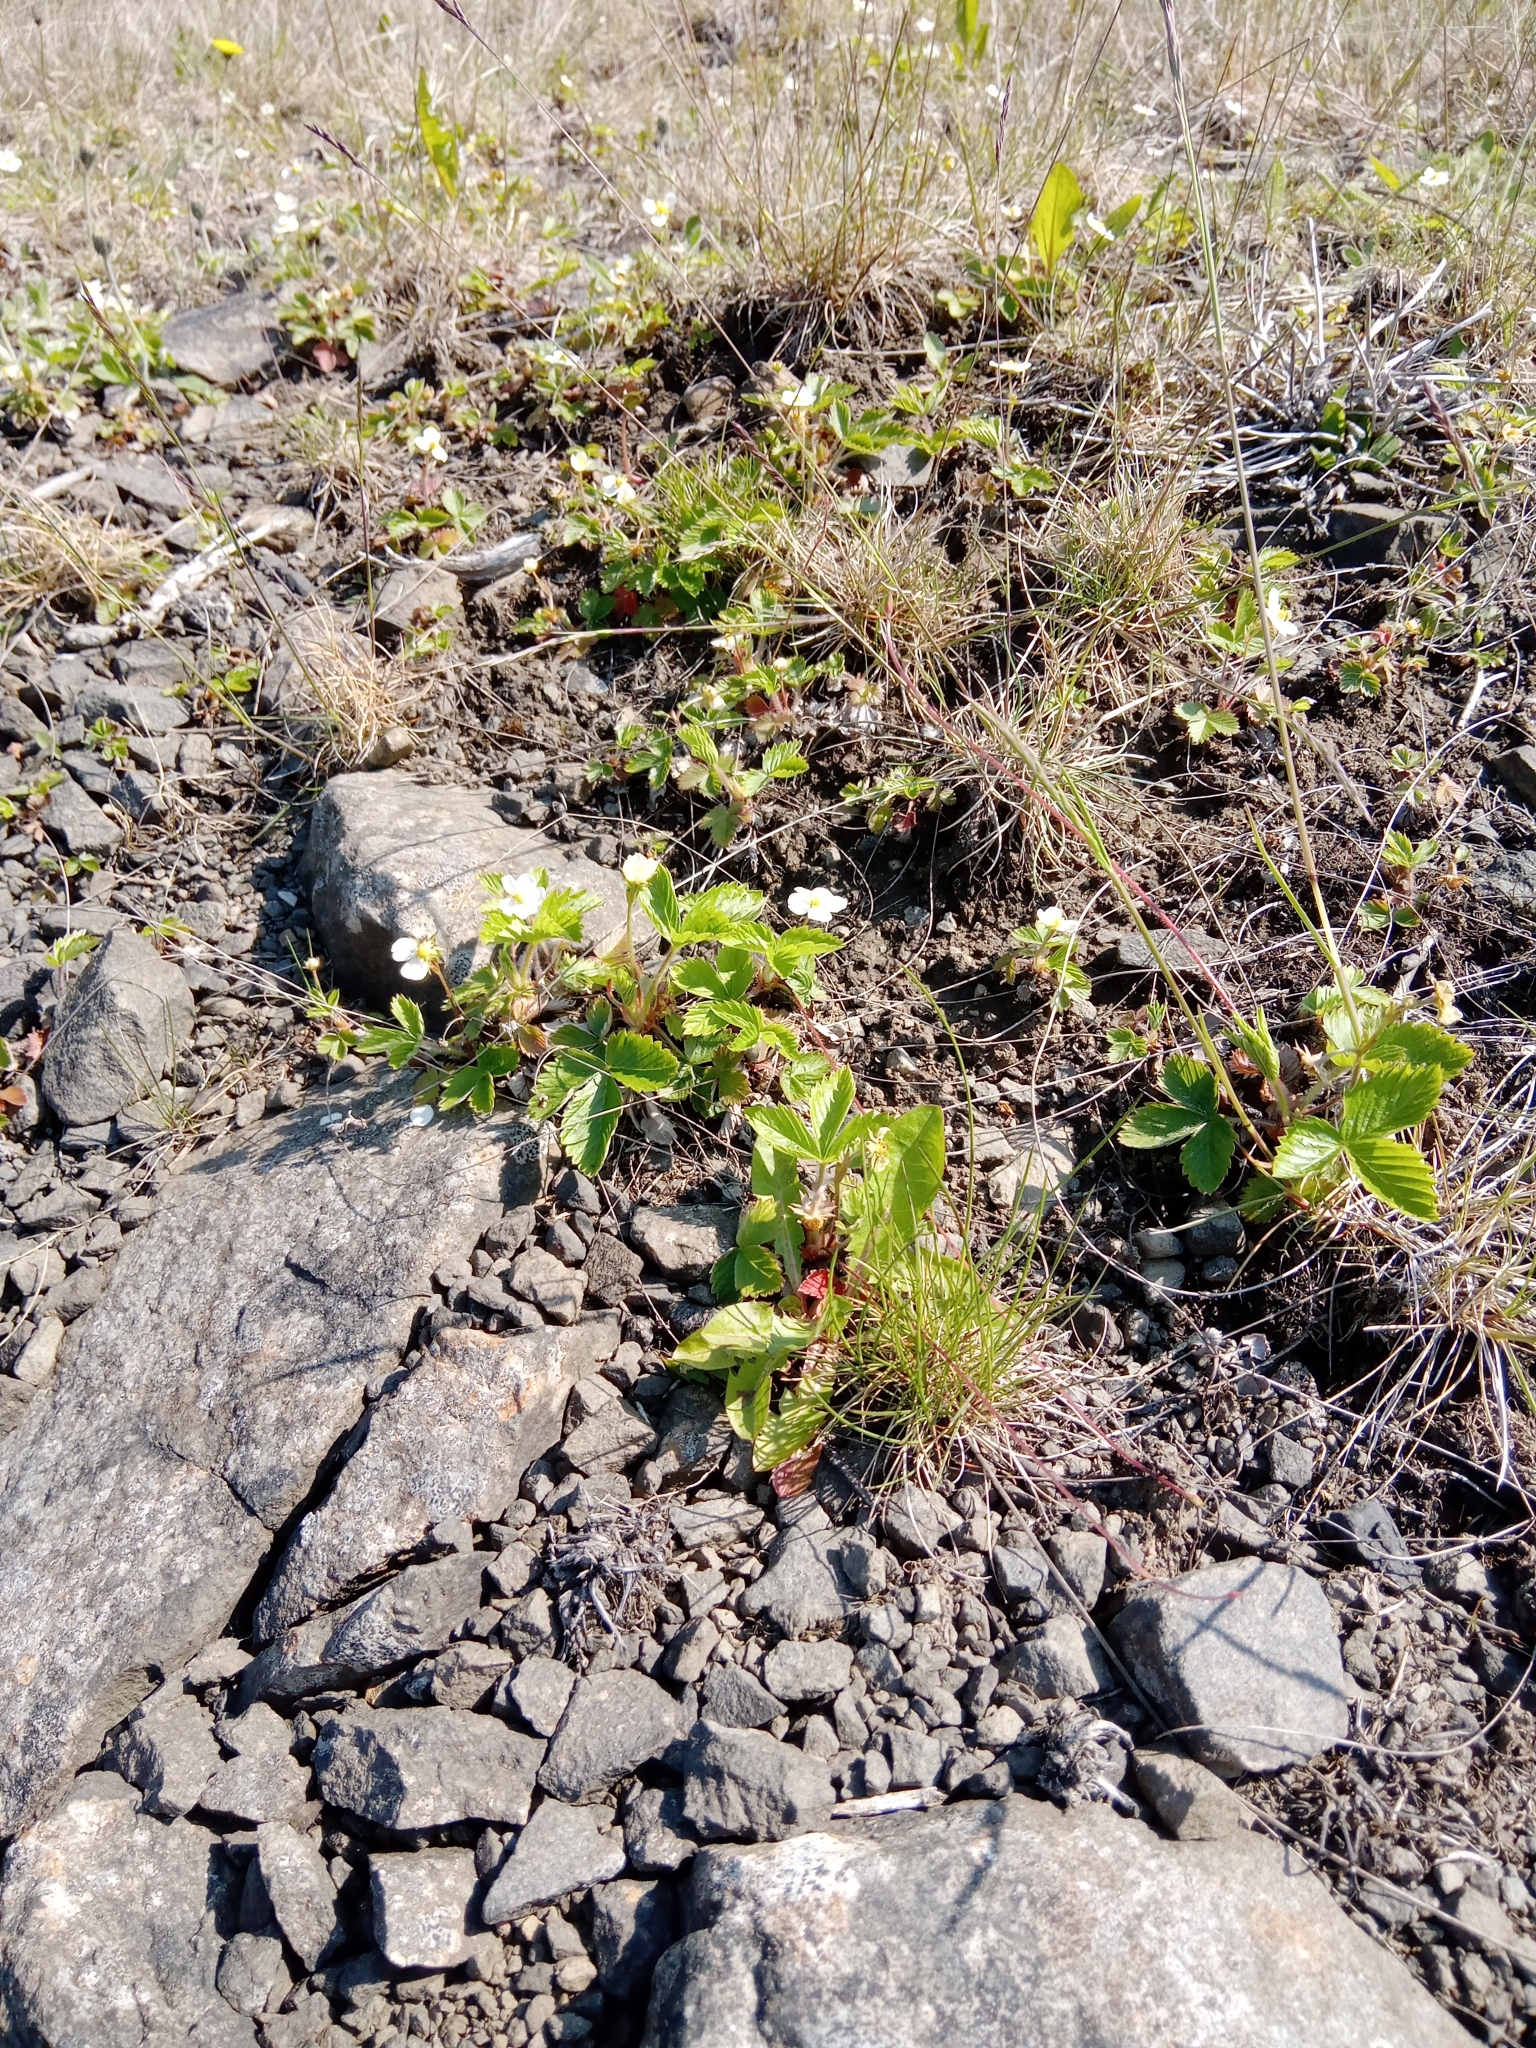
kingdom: Plantae
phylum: Tracheophyta
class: Magnoliopsida
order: Rosales
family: Rosaceae
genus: Fragaria
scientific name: Fragaria vesca
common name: Wild strawberry
